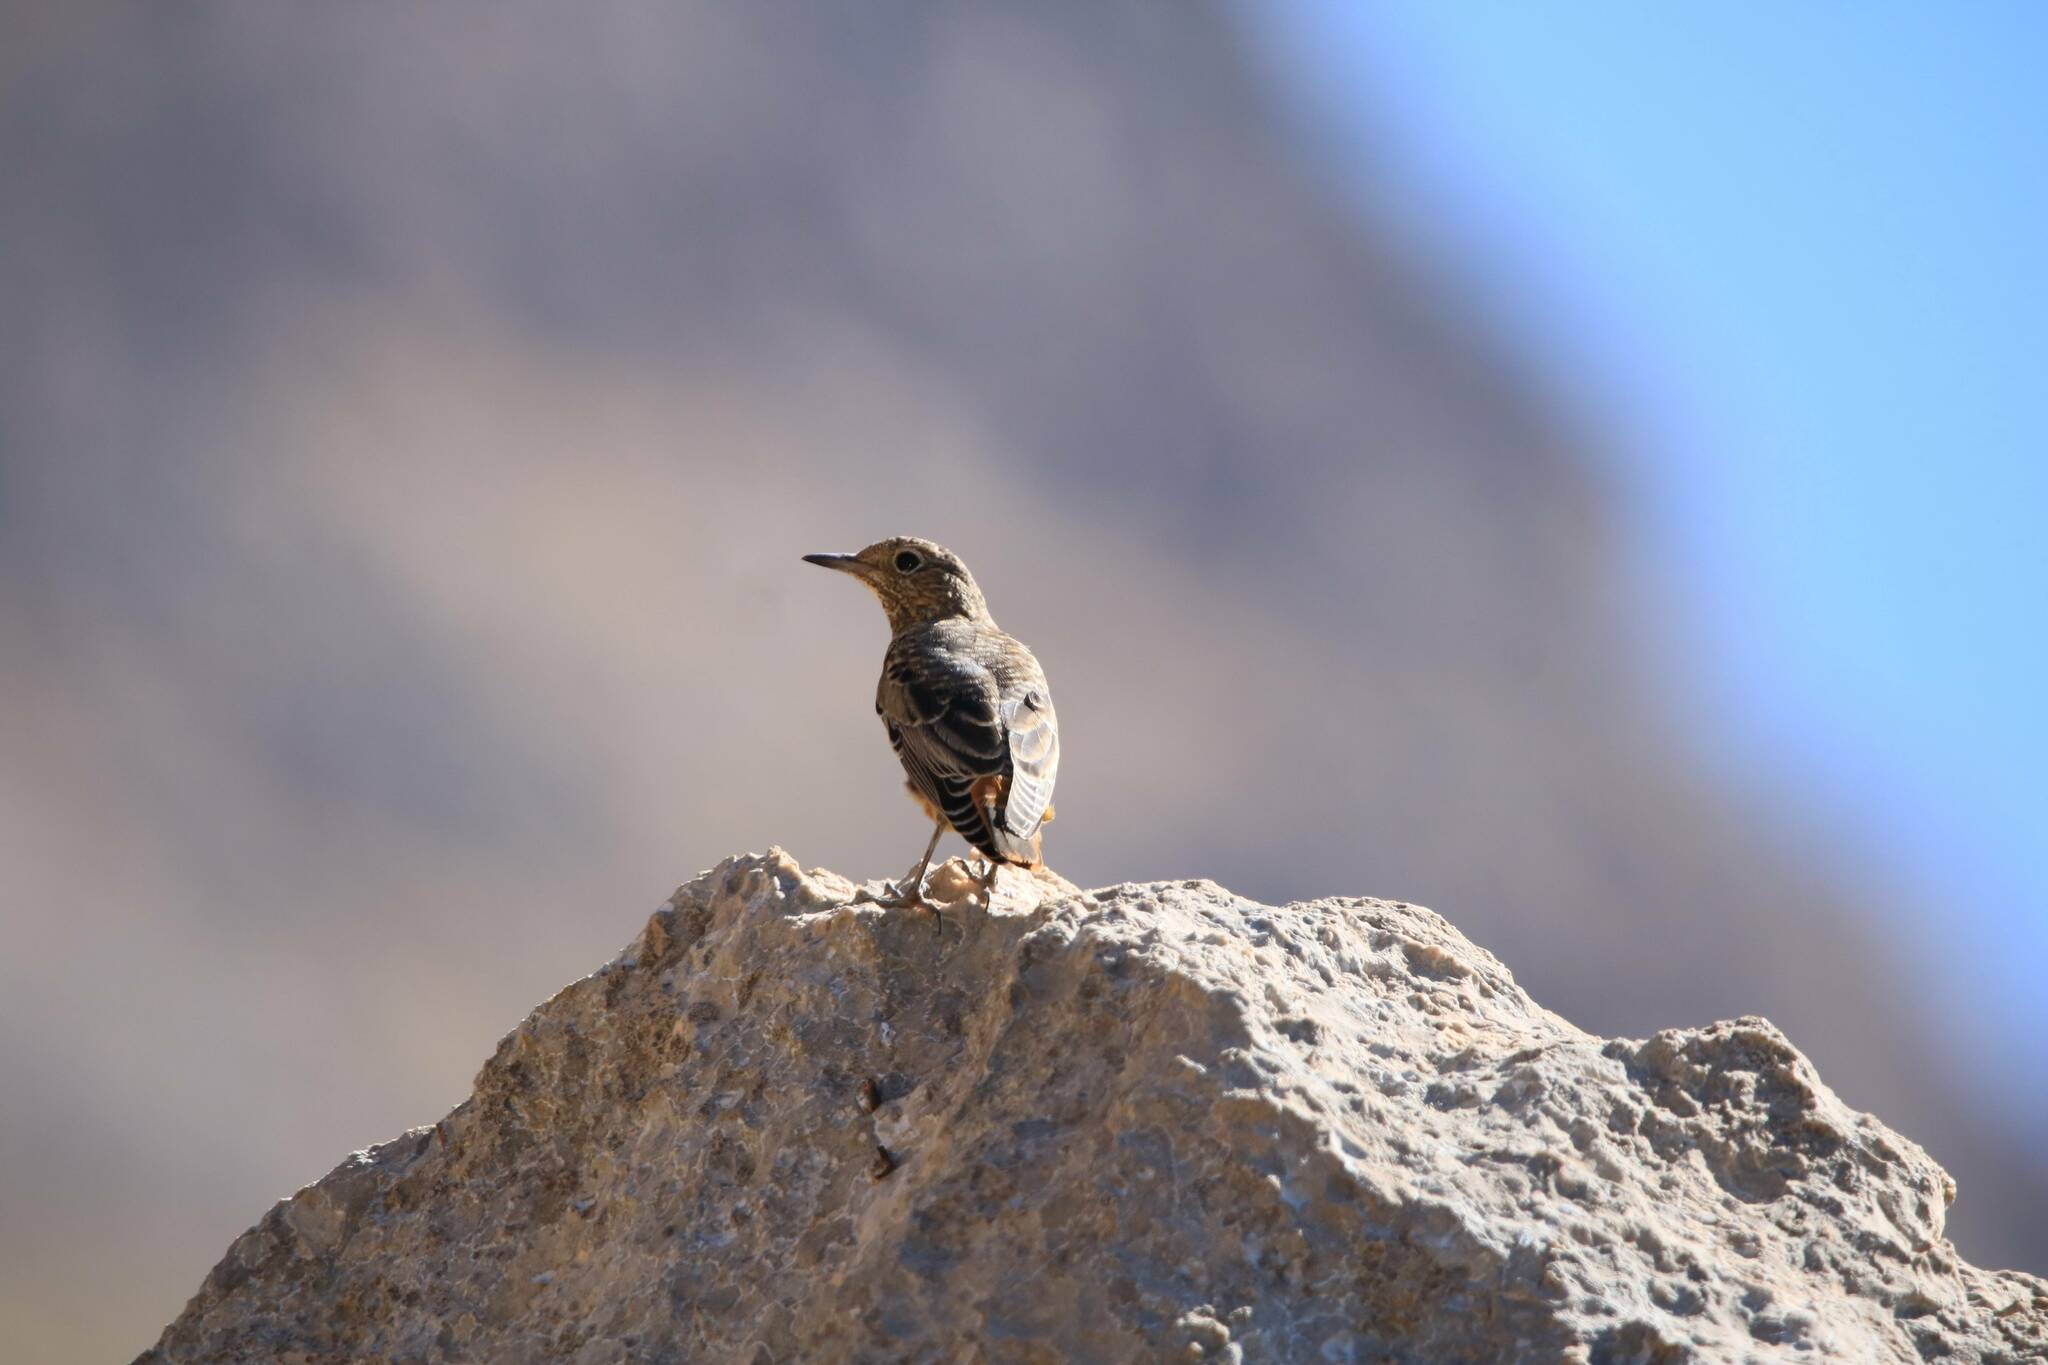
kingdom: Animalia
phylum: Chordata
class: Aves
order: Passeriformes
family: Muscicapidae
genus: Monticola
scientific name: Monticola saxatilis
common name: Rufous-tailed rock thrush
